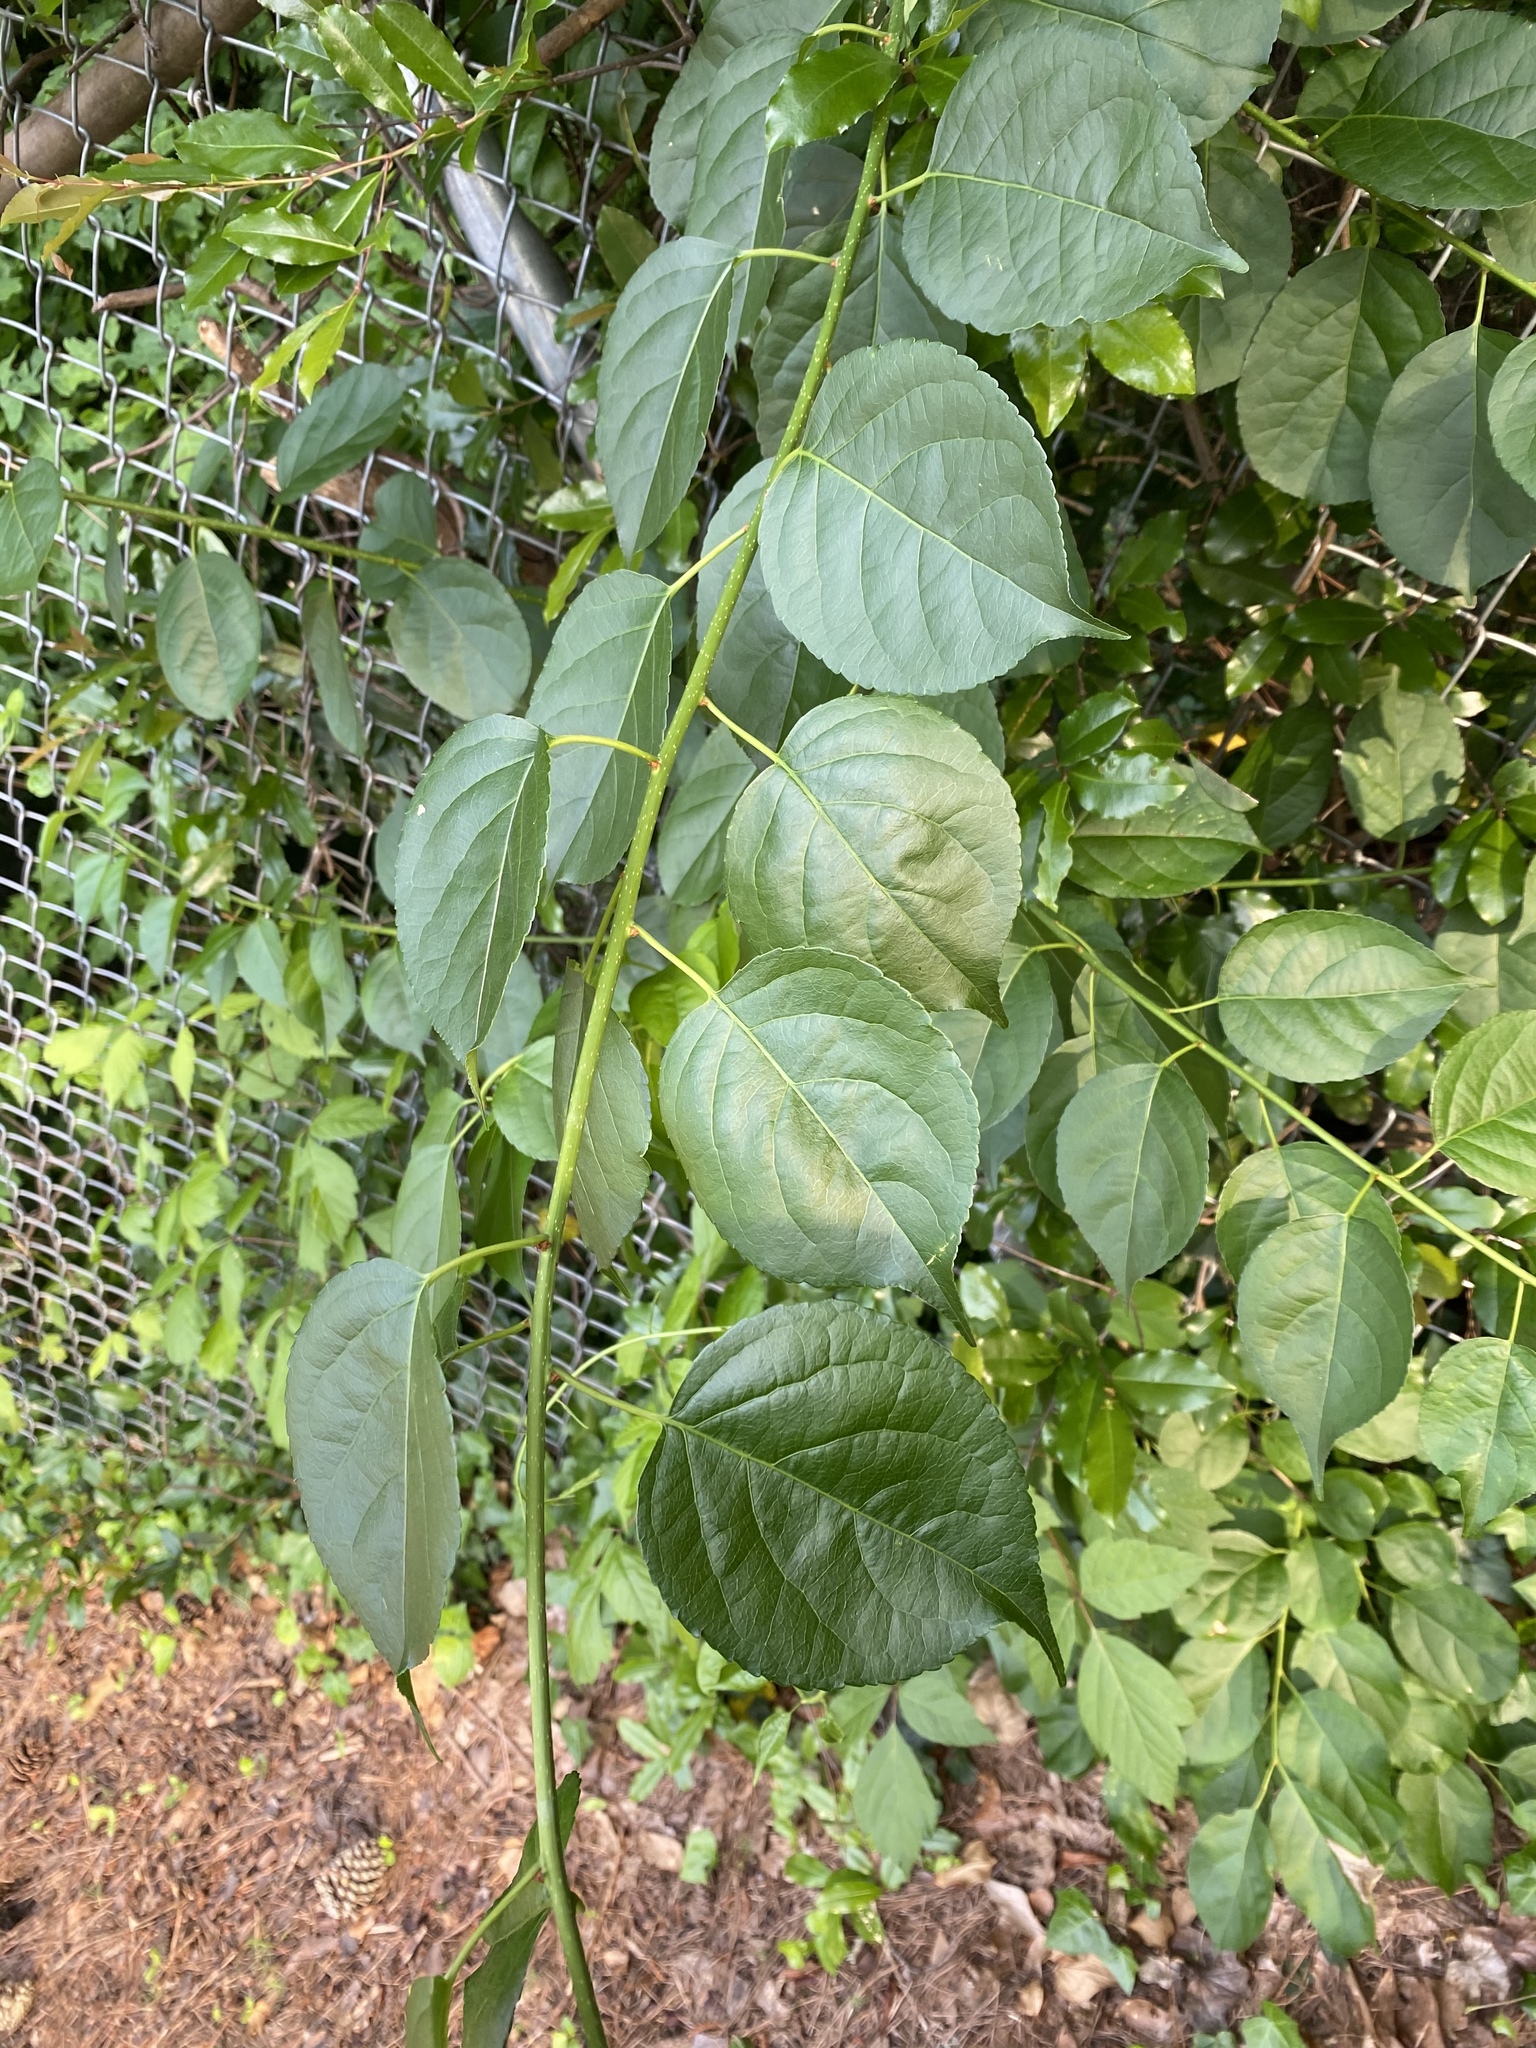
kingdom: Plantae
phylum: Tracheophyta
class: Magnoliopsida
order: Celastrales
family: Celastraceae
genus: Celastrus
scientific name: Celastrus orbiculatus
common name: Oriental bittersweet
